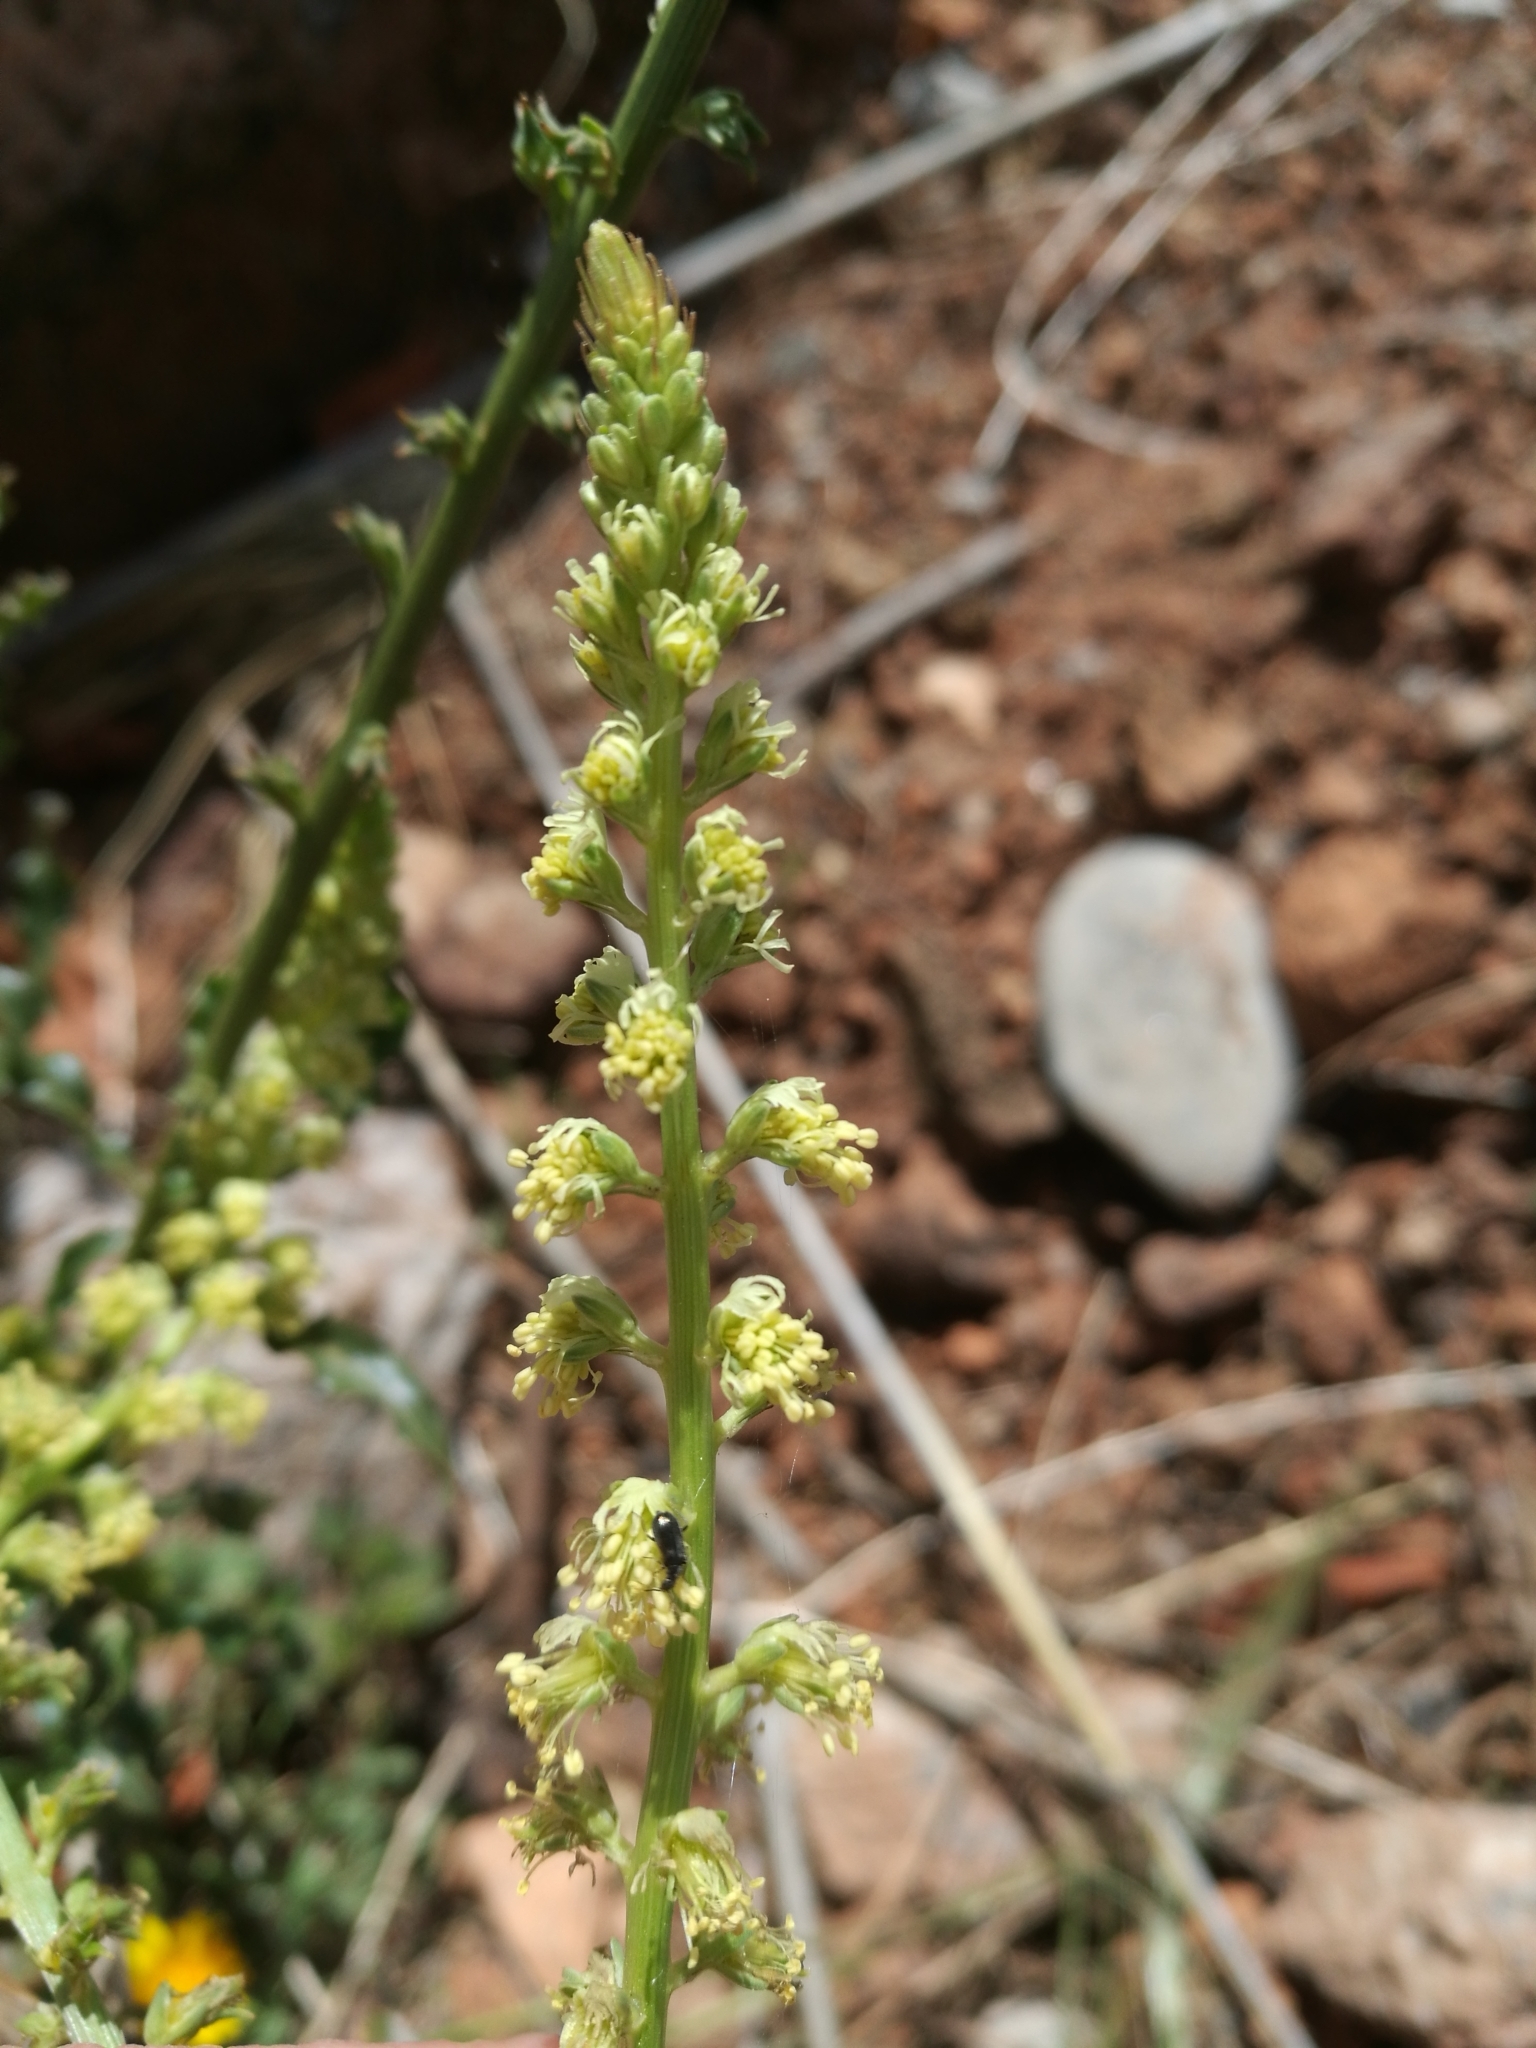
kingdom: Plantae
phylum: Tracheophyta
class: Magnoliopsida
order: Brassicales
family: Resedaceae
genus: Reseda
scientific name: Reseda luteola
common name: Weld
